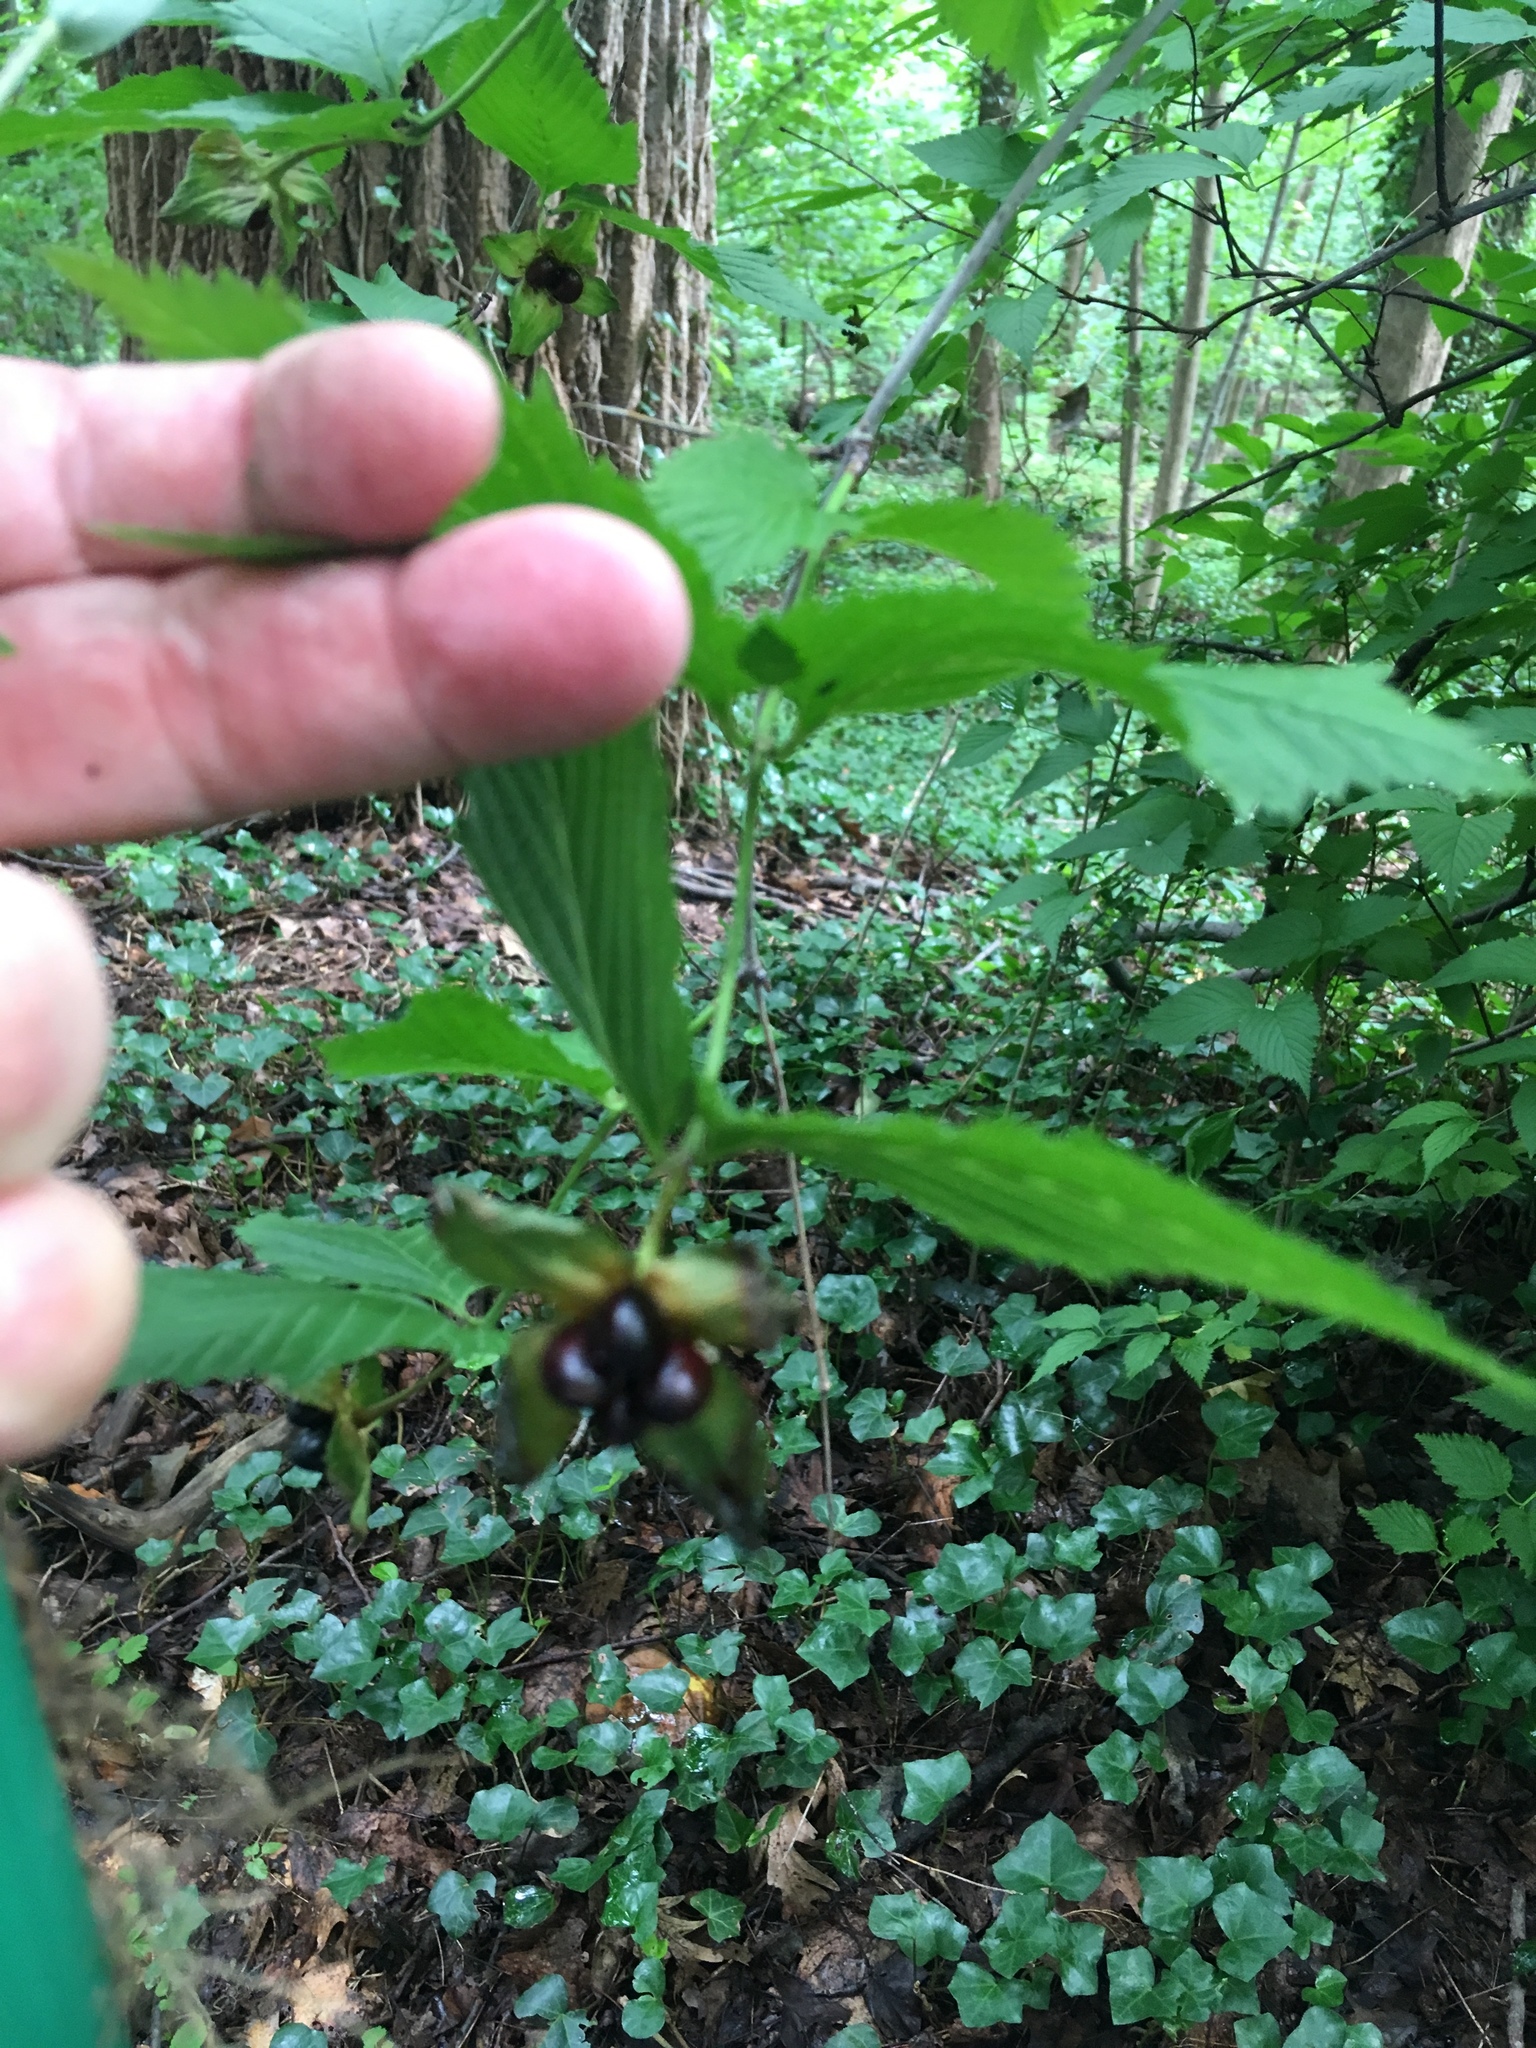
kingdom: Plantae
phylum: Tracheophyta
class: Magnoliopsida
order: Rosales
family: Rosaceae
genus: Rhodotypos
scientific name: Rhodotypos scandens
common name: Jetbead
